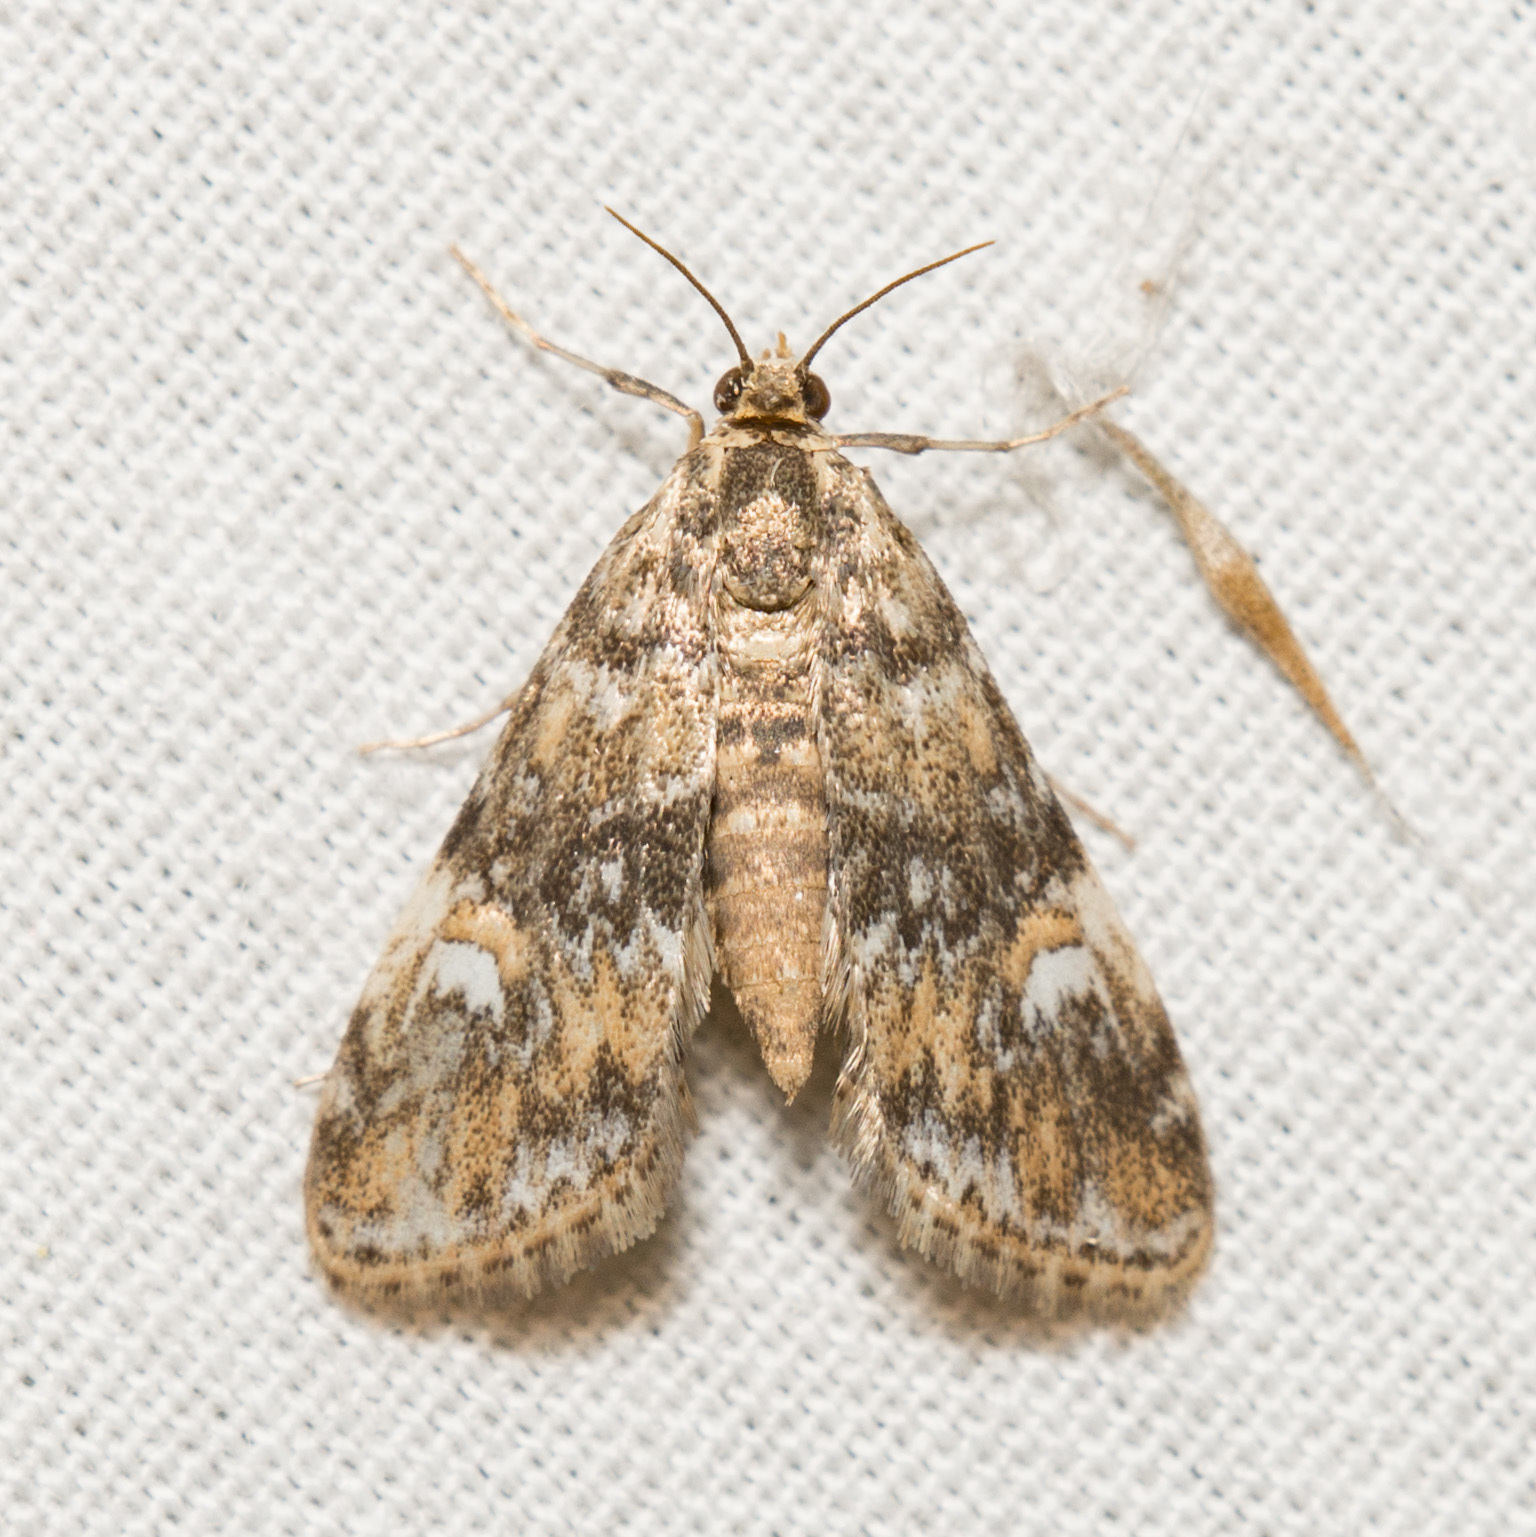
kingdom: Animalia
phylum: Arthropoda
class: Insecta
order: Lepidoptera
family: Crambidae
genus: Elophila
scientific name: Elophila obliteralis
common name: Waterlily leafcutter moth
